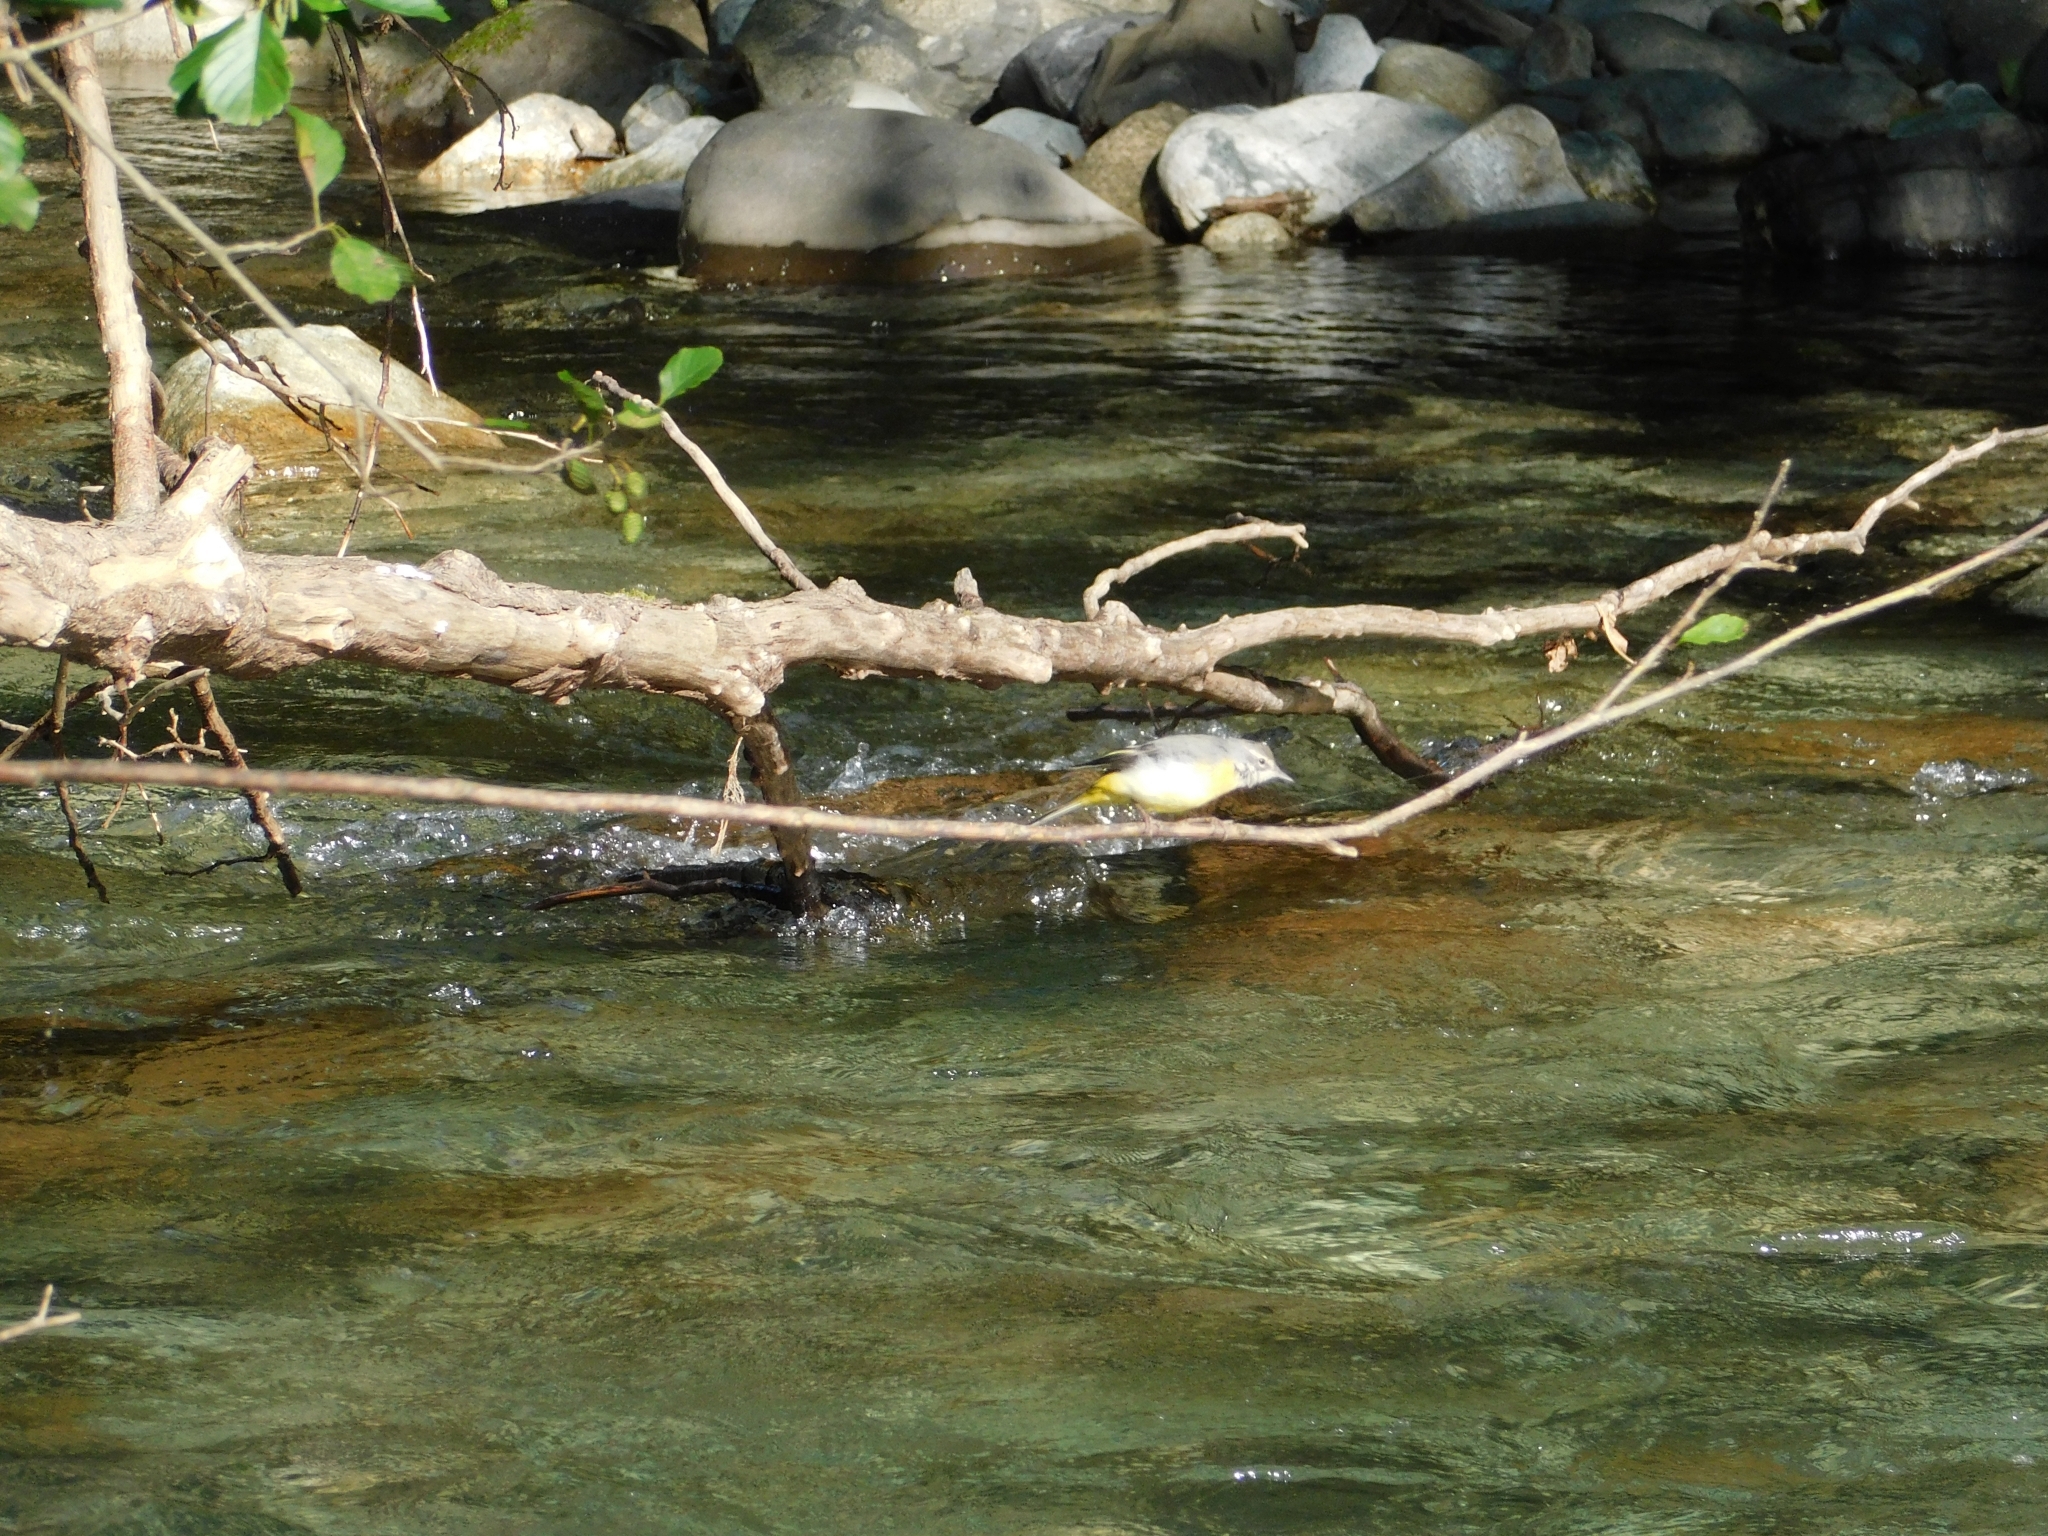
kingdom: Animalia
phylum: Chordata
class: Aves
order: Passeriformes
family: Motacillidae
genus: Motacilla
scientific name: Motacilla cinerea
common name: Grey wagtail
